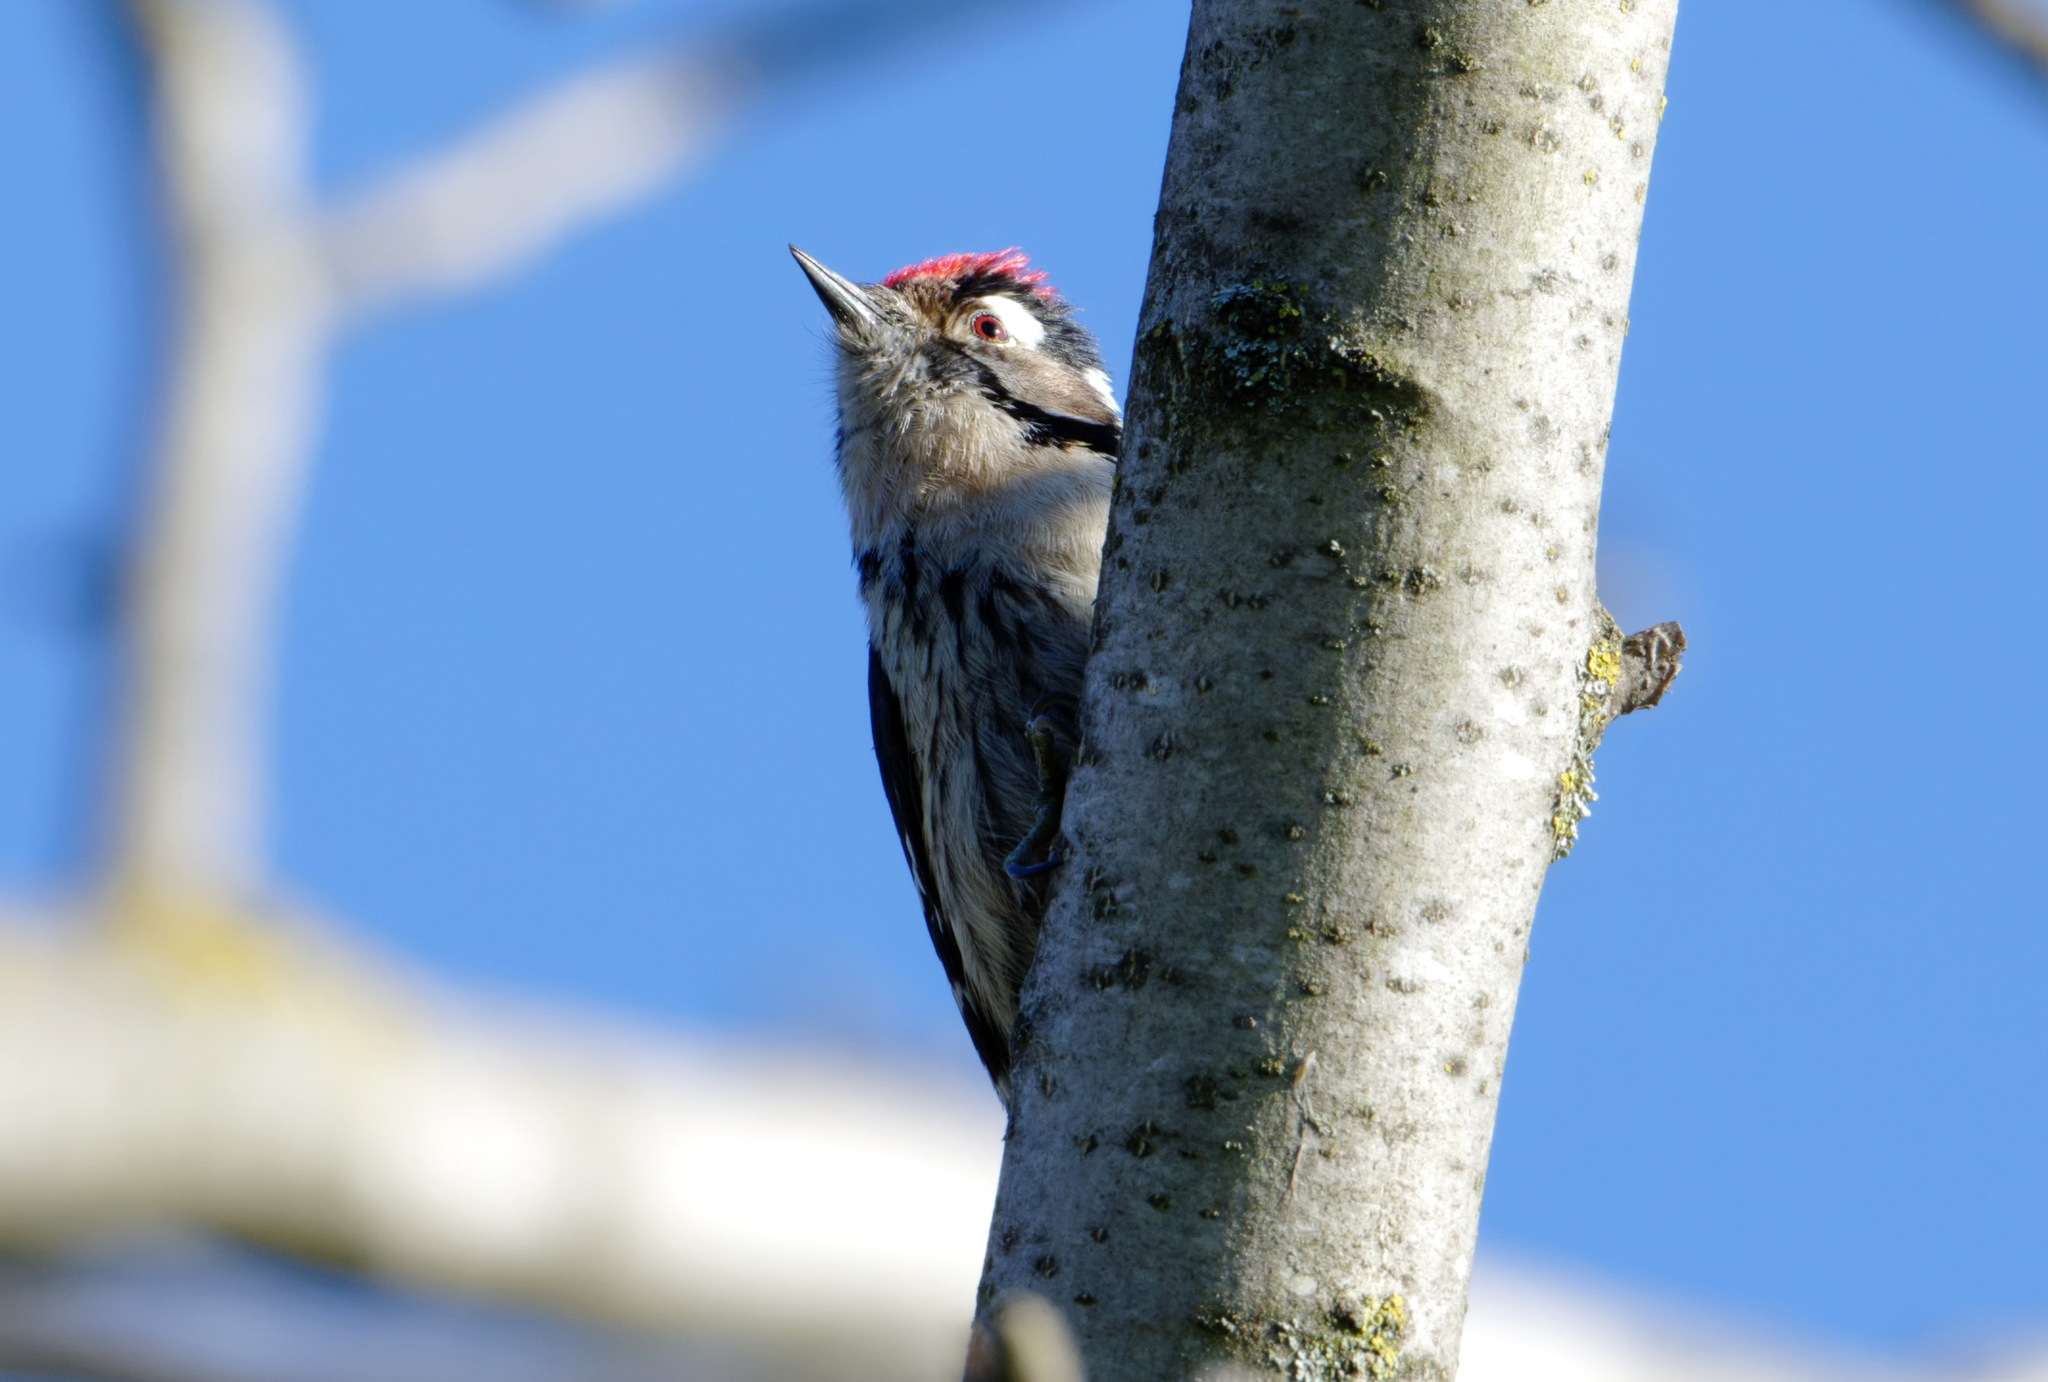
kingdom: Animalia
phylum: Chordata
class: Aves
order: Piciformes
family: Picidae
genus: Dryobates
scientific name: Dryobates minor
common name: Lesser spotted woodpecker
